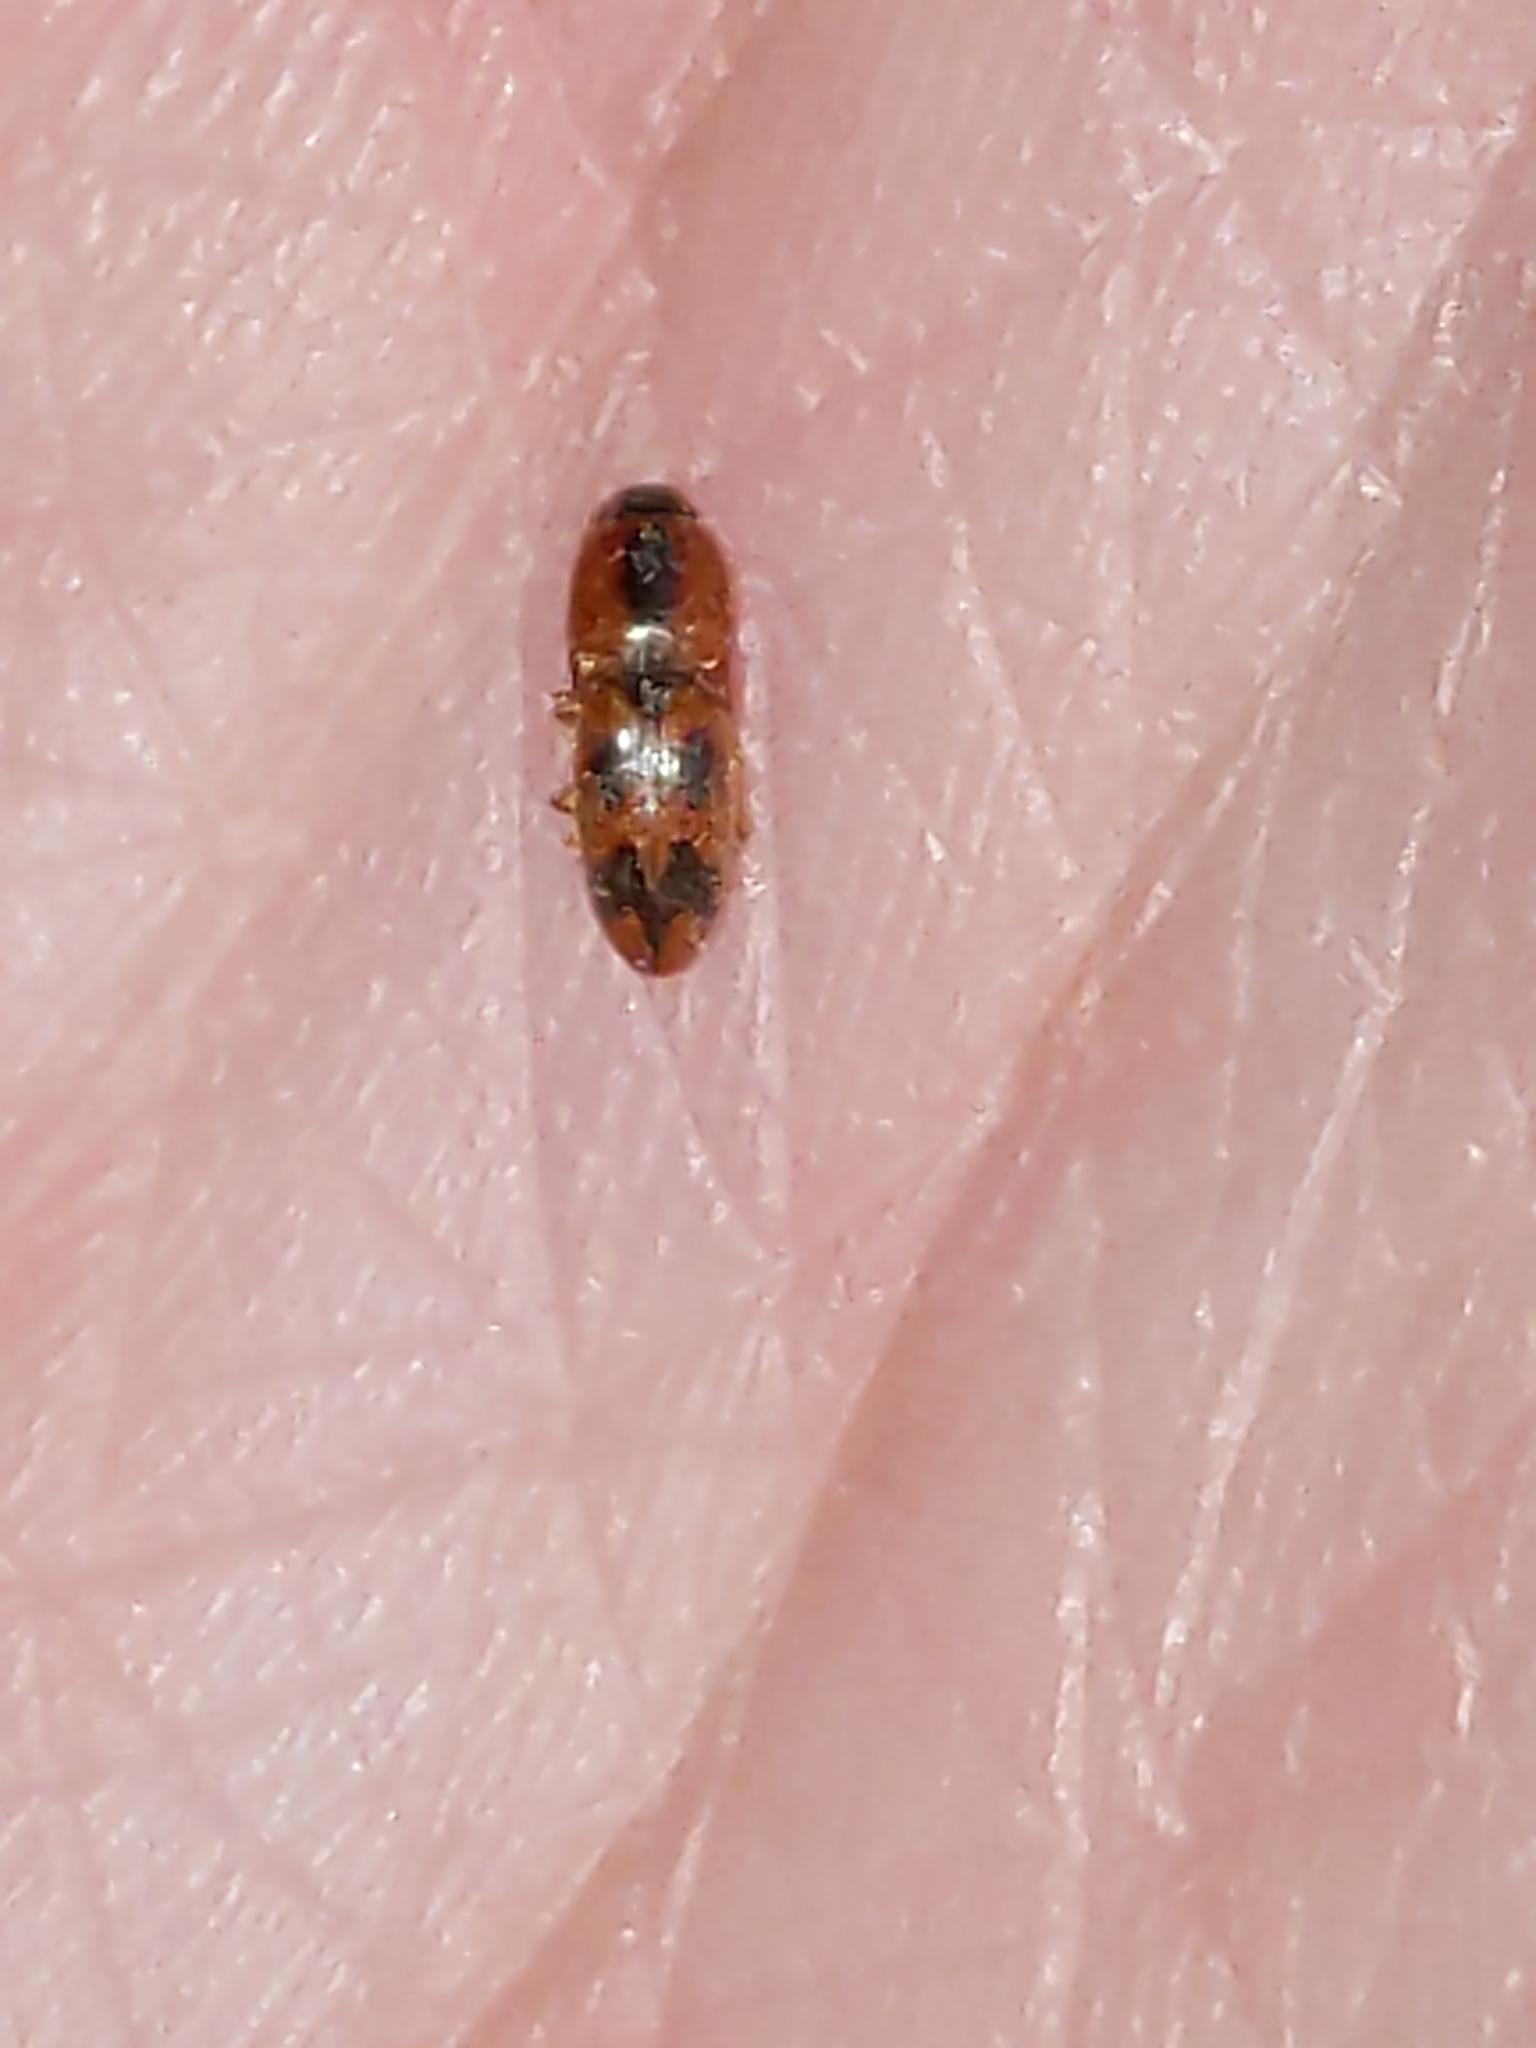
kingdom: Animalia
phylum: Arthropoda
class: Insecta
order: Coleoptera
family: Elateridae
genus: Aeolus
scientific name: Aeolus mellillus
